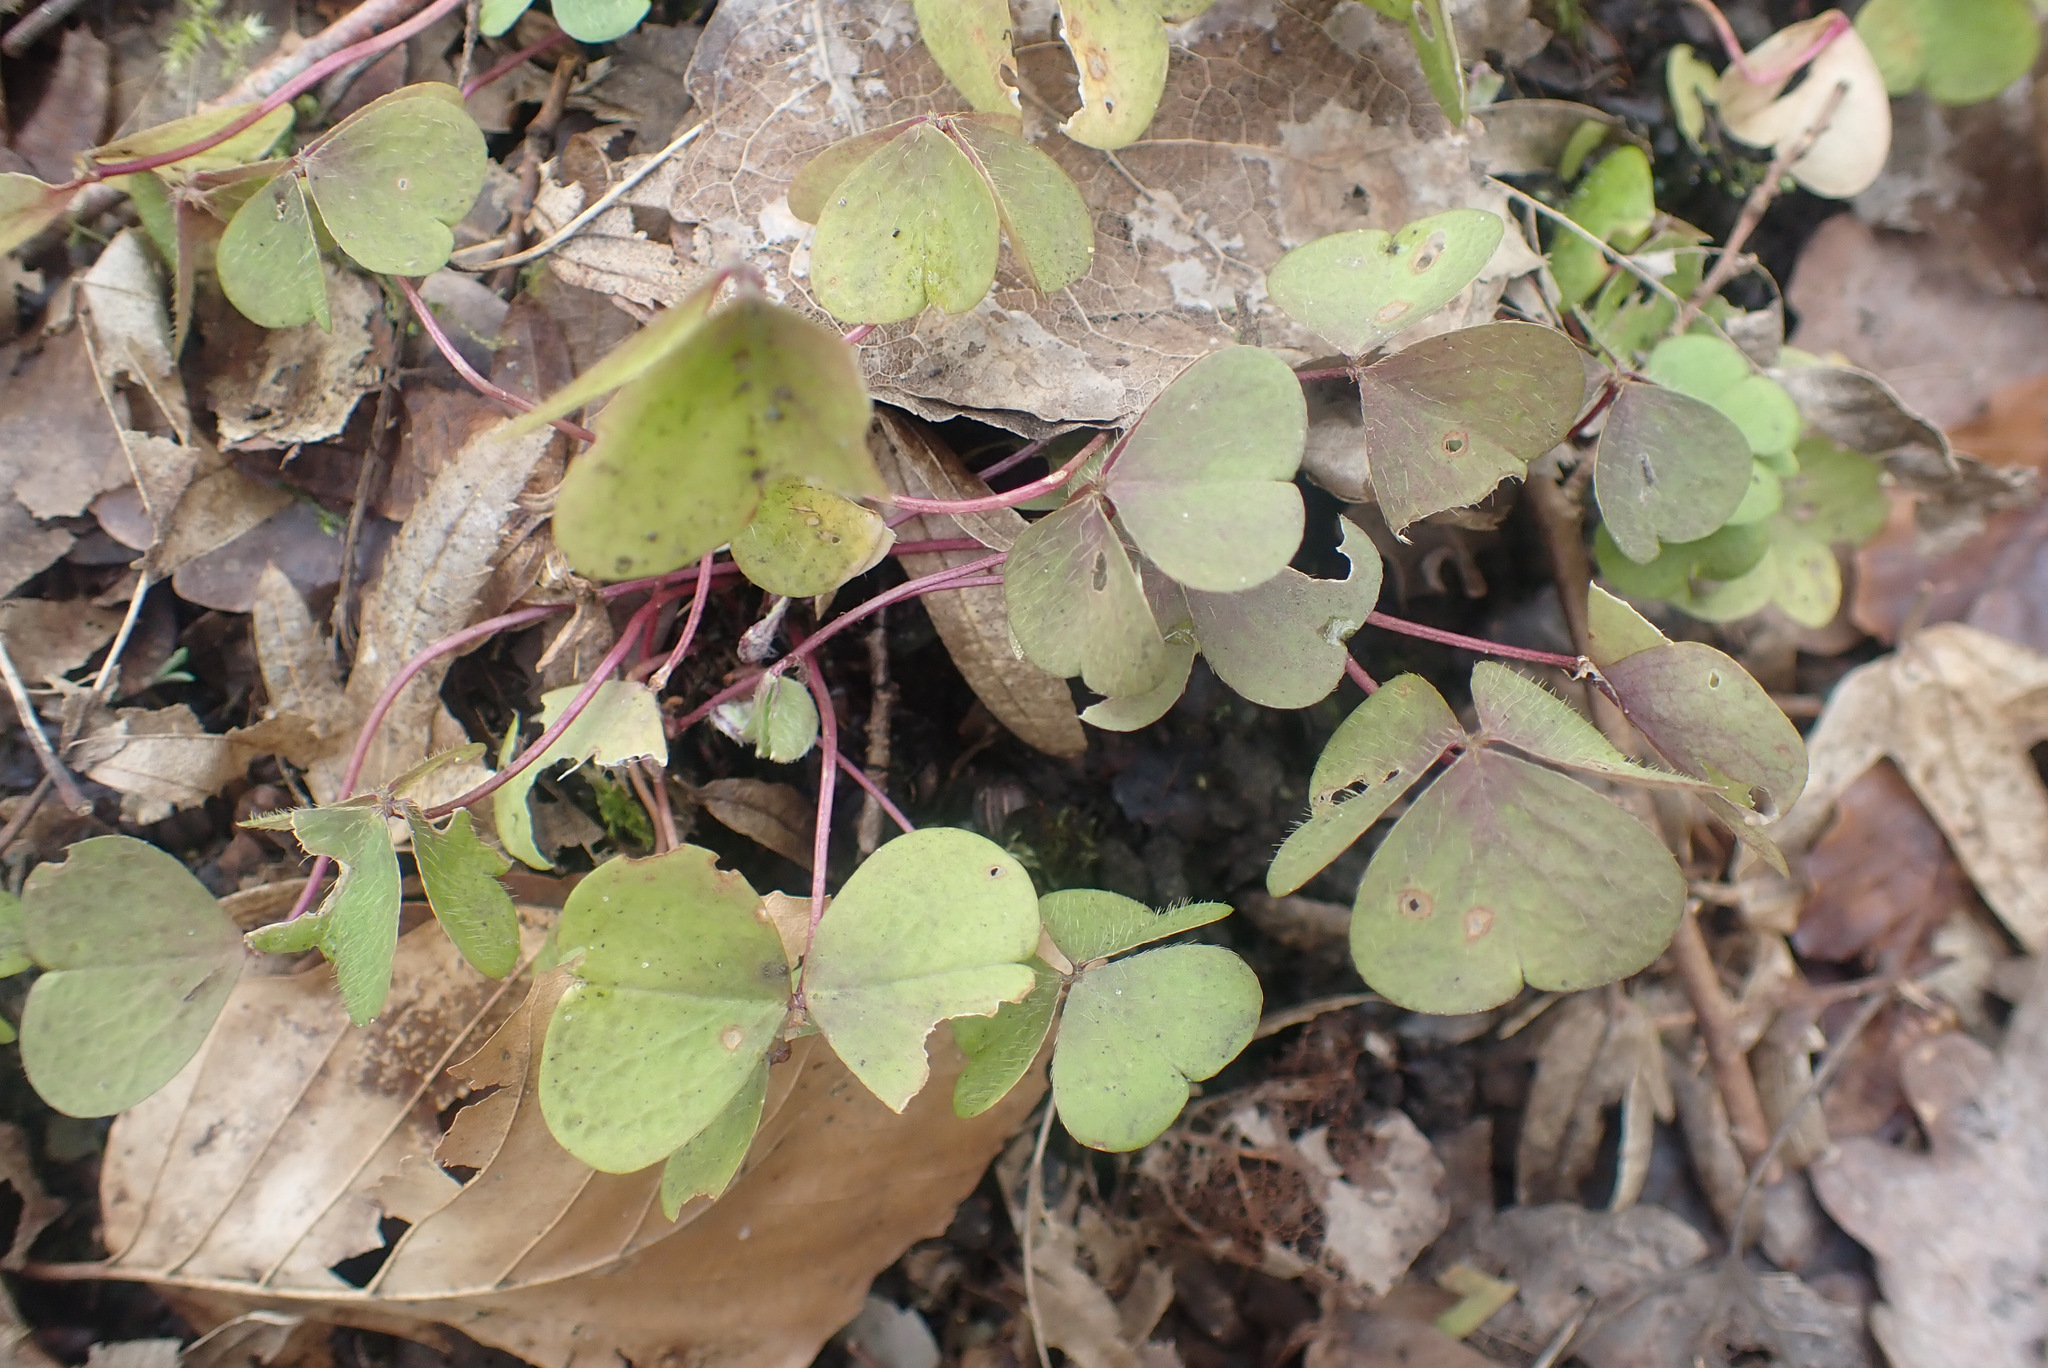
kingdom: Plantae
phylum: Tracheophyta
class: Magnoliopsida
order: Oxalidales
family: Oxalidaceae
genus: Oxalis
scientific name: Oxalis acetosella
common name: Wood-sorrel
